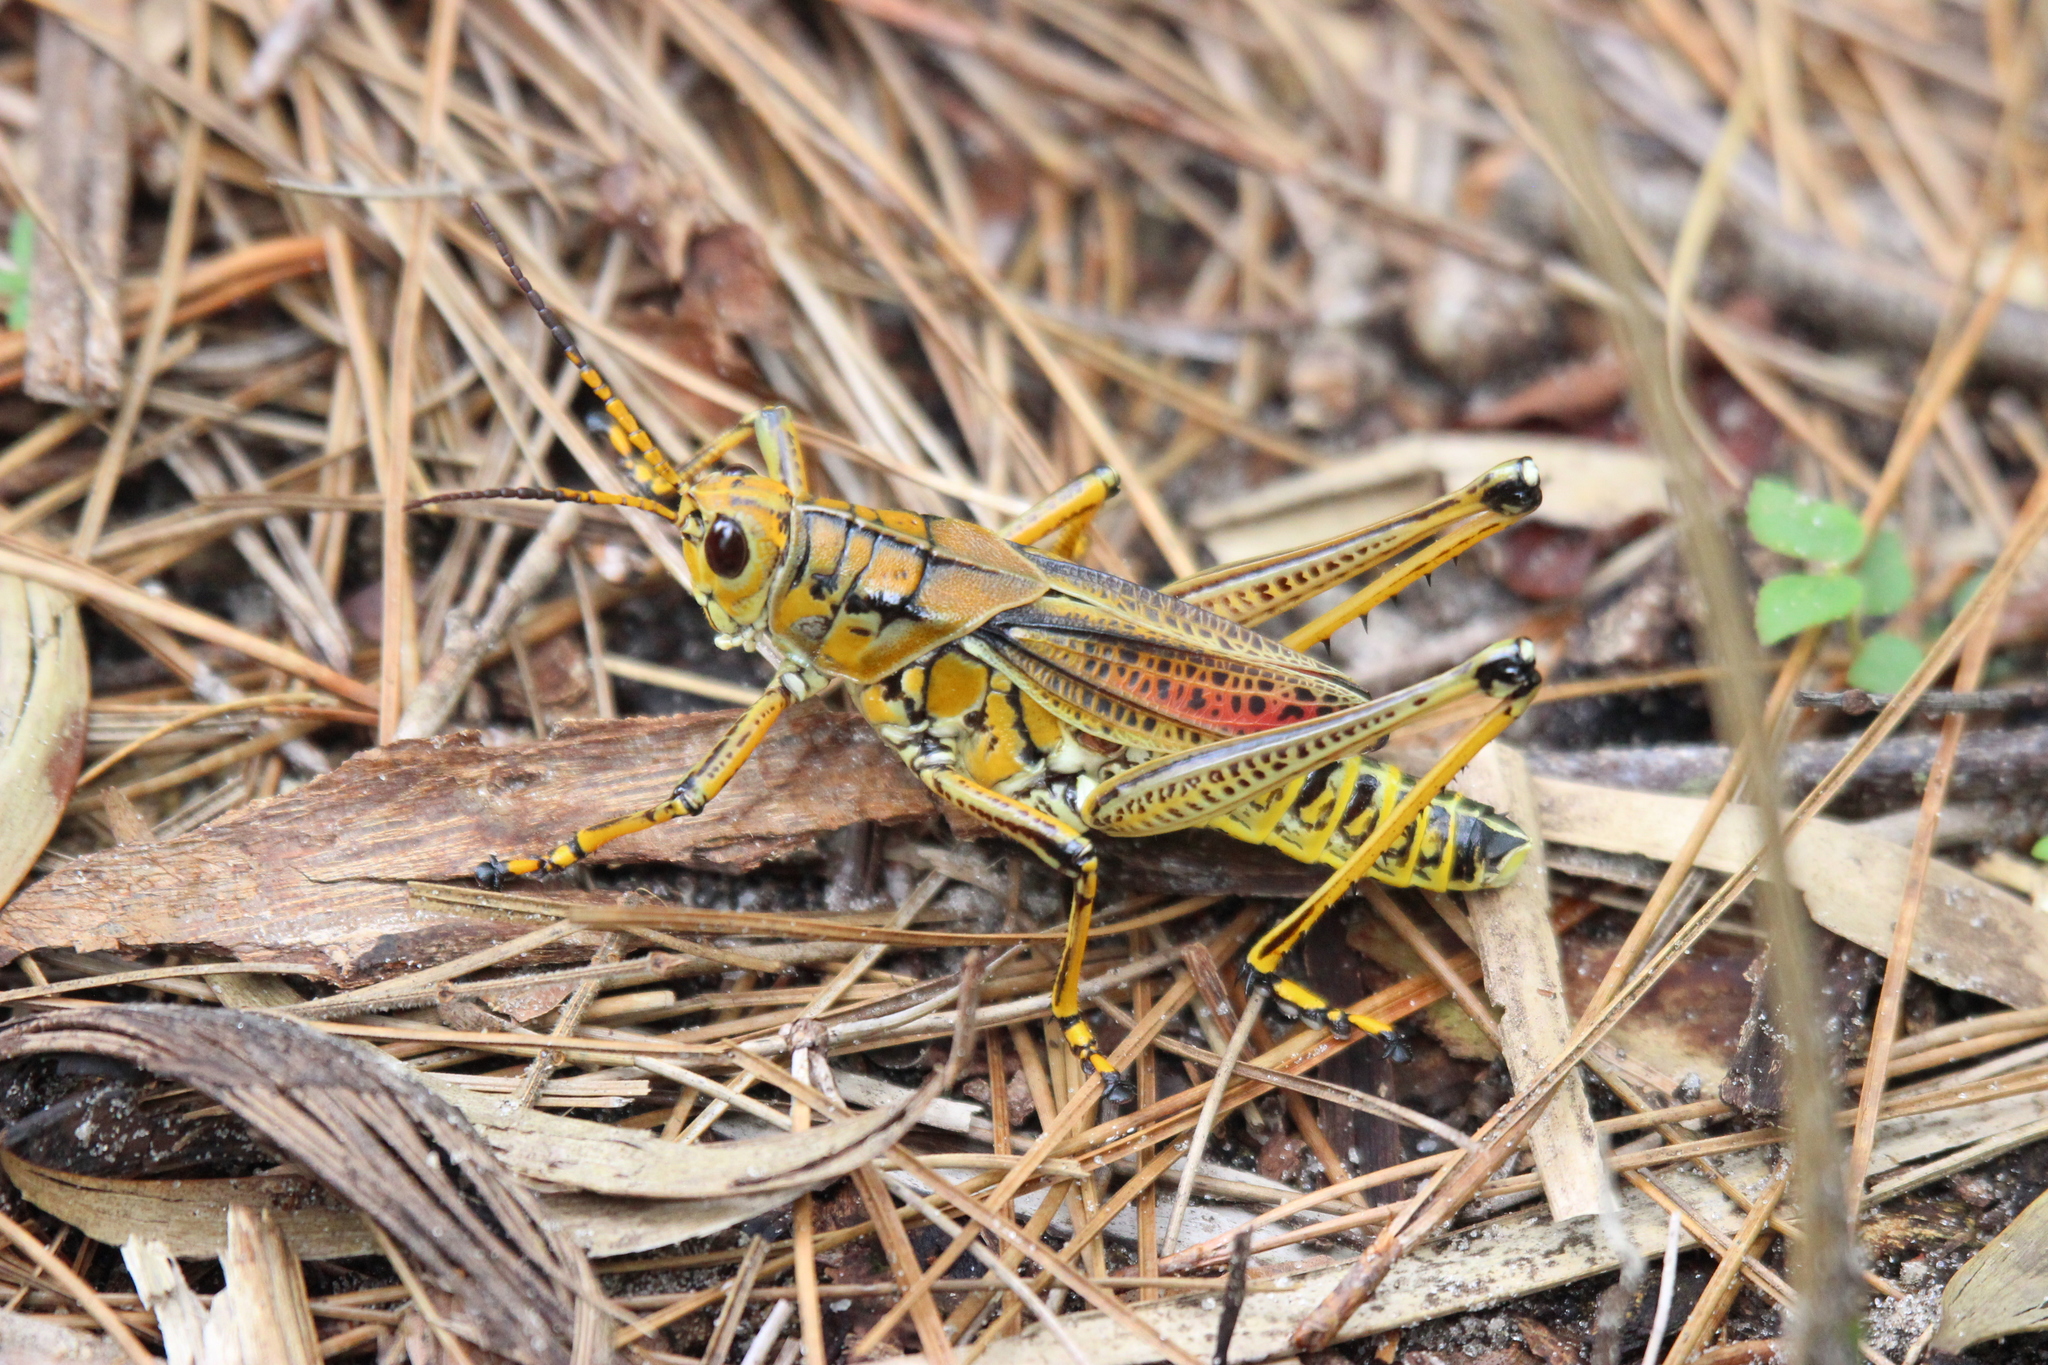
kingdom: Animalia
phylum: Arthropoda
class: Insecta
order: Orthoptera
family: Romaleidae
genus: Romalea
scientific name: Romalea microptera
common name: Eastern lubber grasshopper
